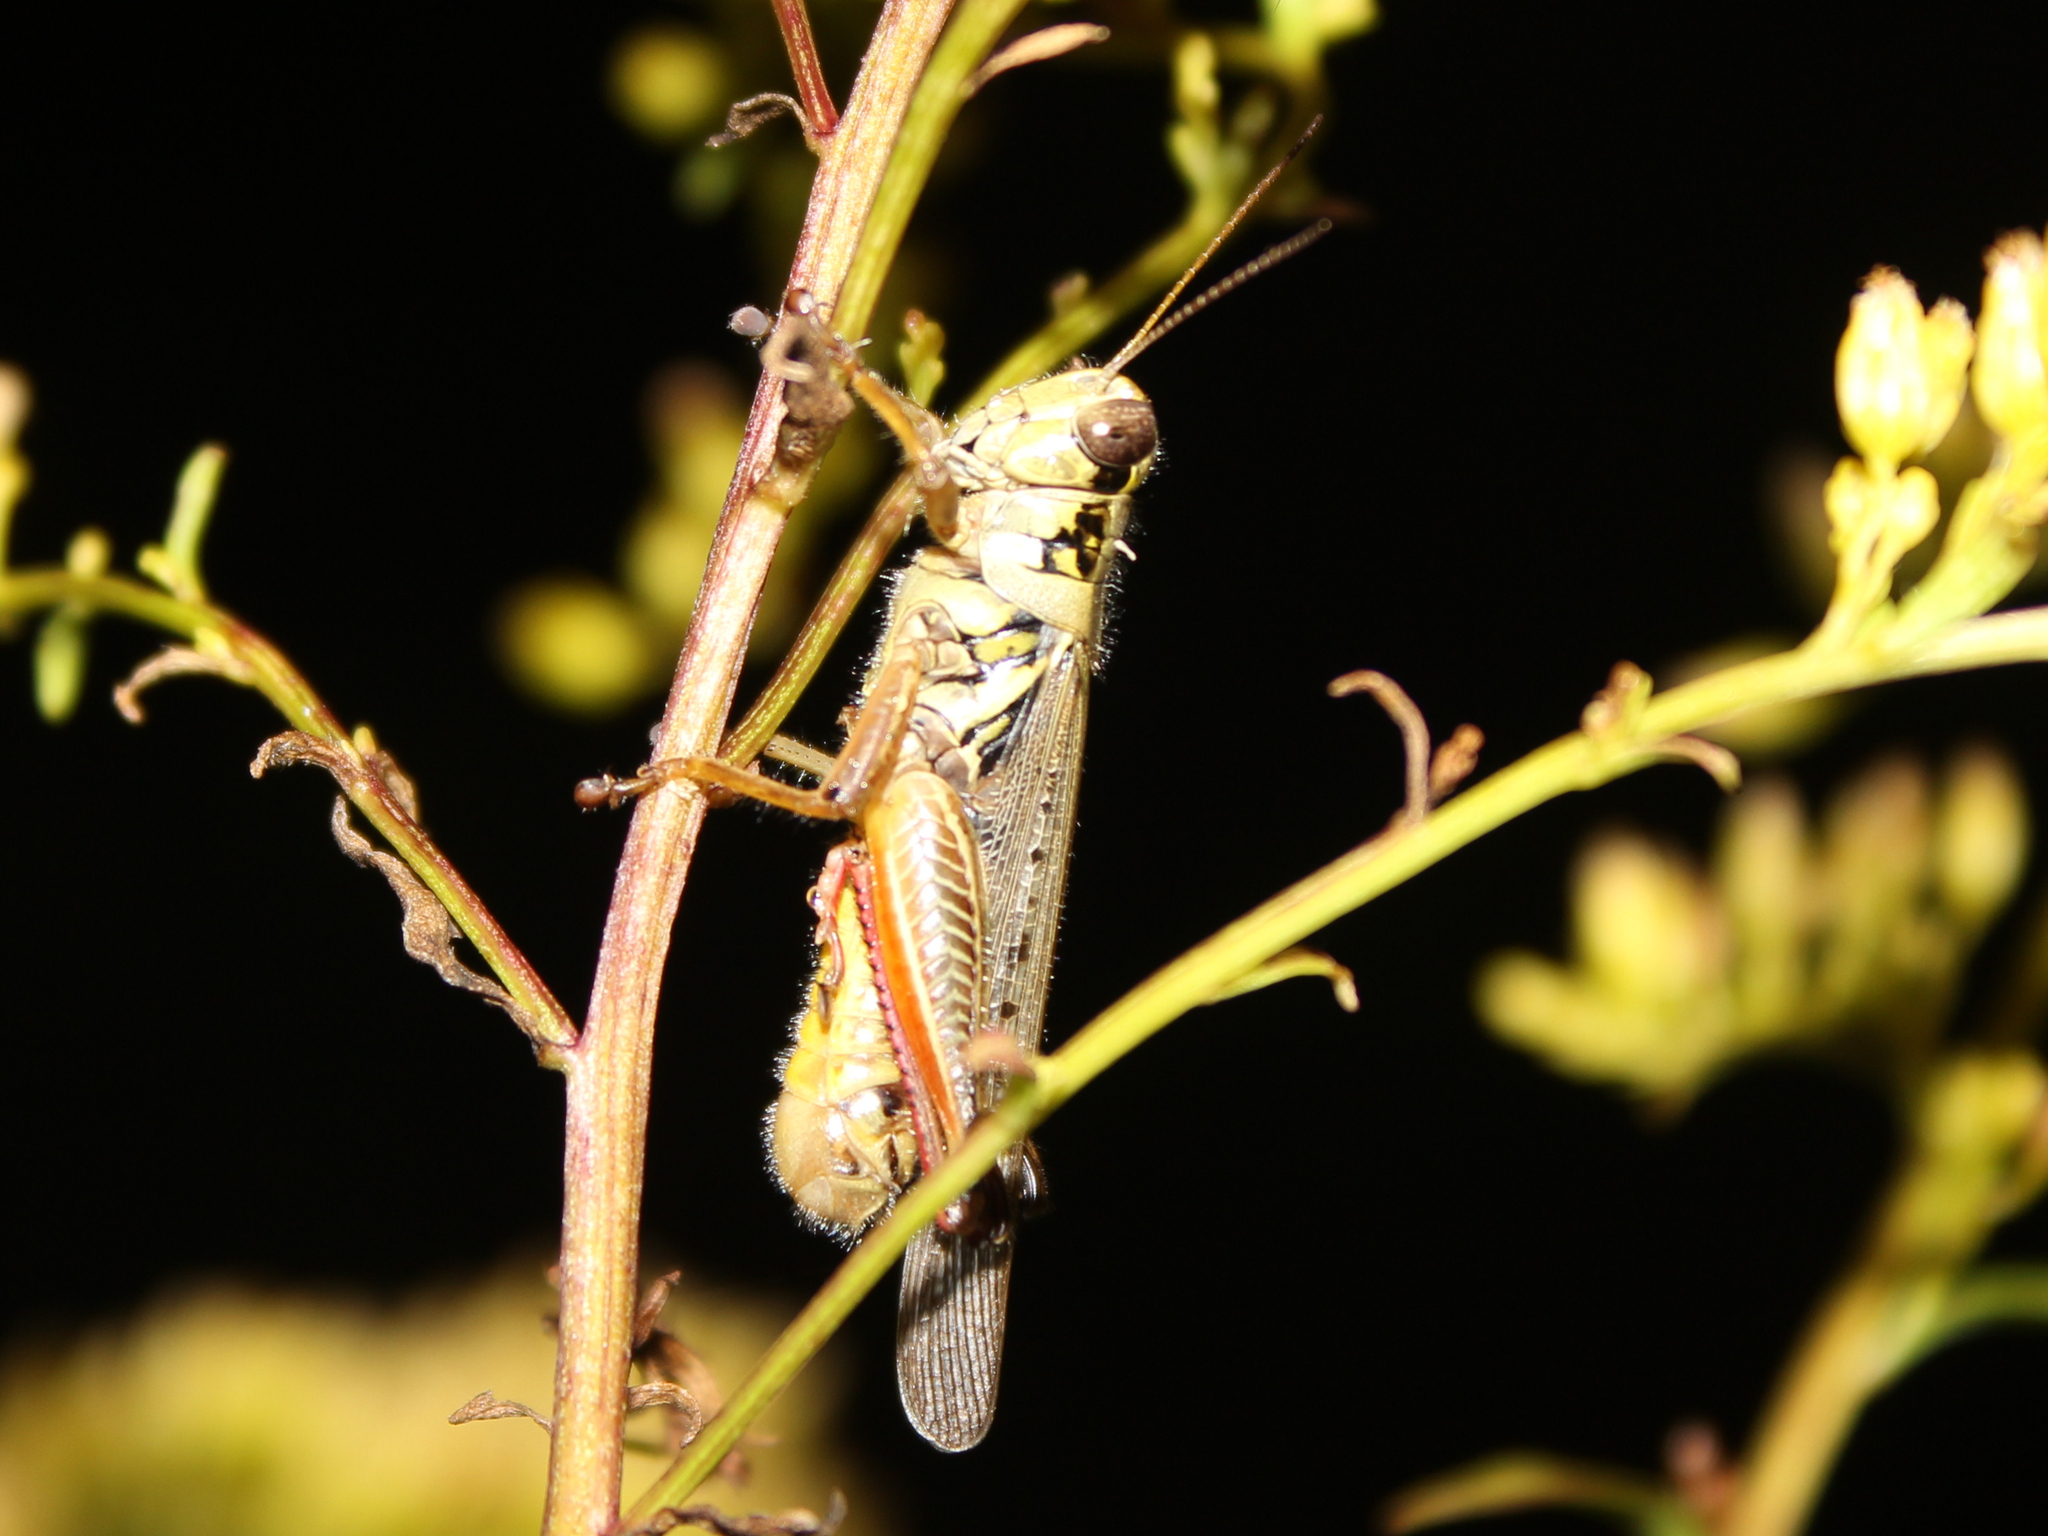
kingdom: Animalia
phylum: Arthropoda
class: Insecta
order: Orthoptera
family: Acrididae
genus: Melanoplus
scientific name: Melanoplus femurrubrum
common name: Red-legged grasshopper
